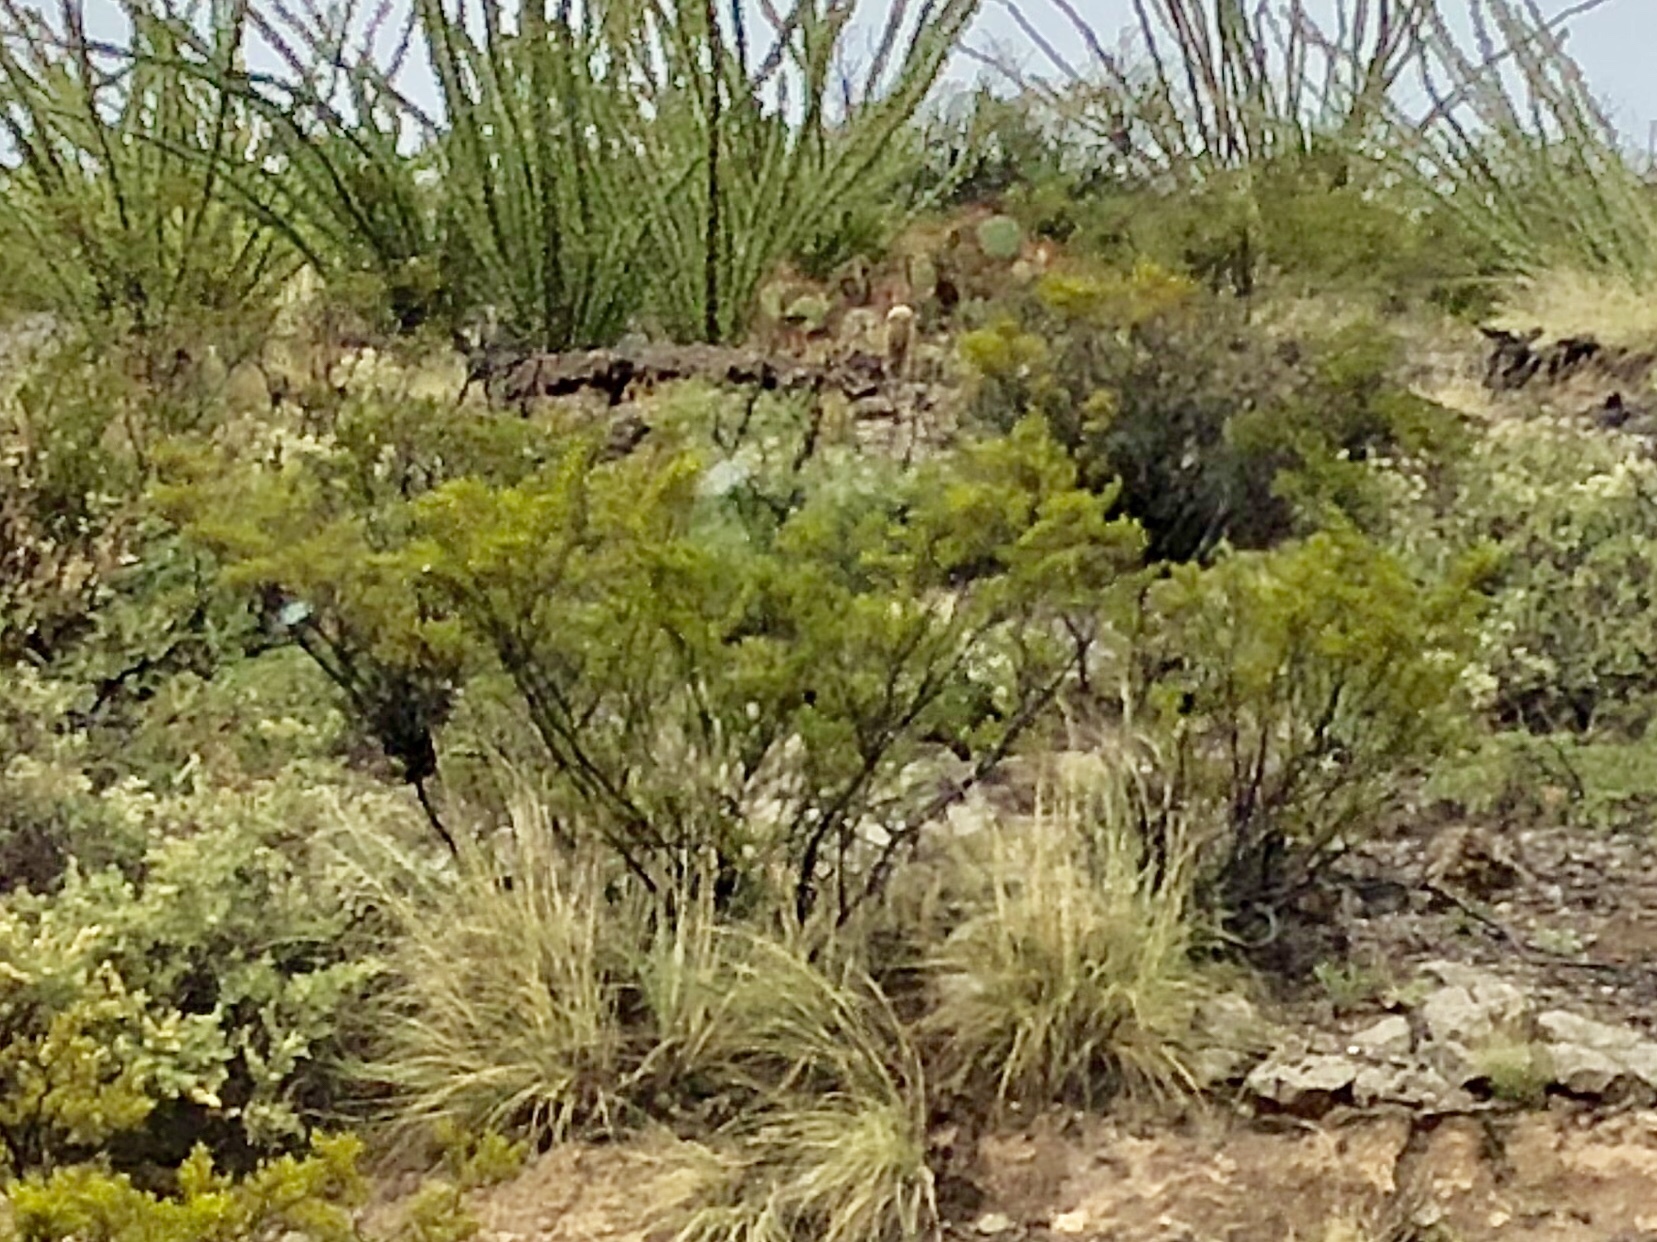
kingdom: Plantae
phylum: Tracheophyta
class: Magnoliopsida
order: Zygophyllales
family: Zygophyllaceae
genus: Larrea
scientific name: Larrea tridentata
